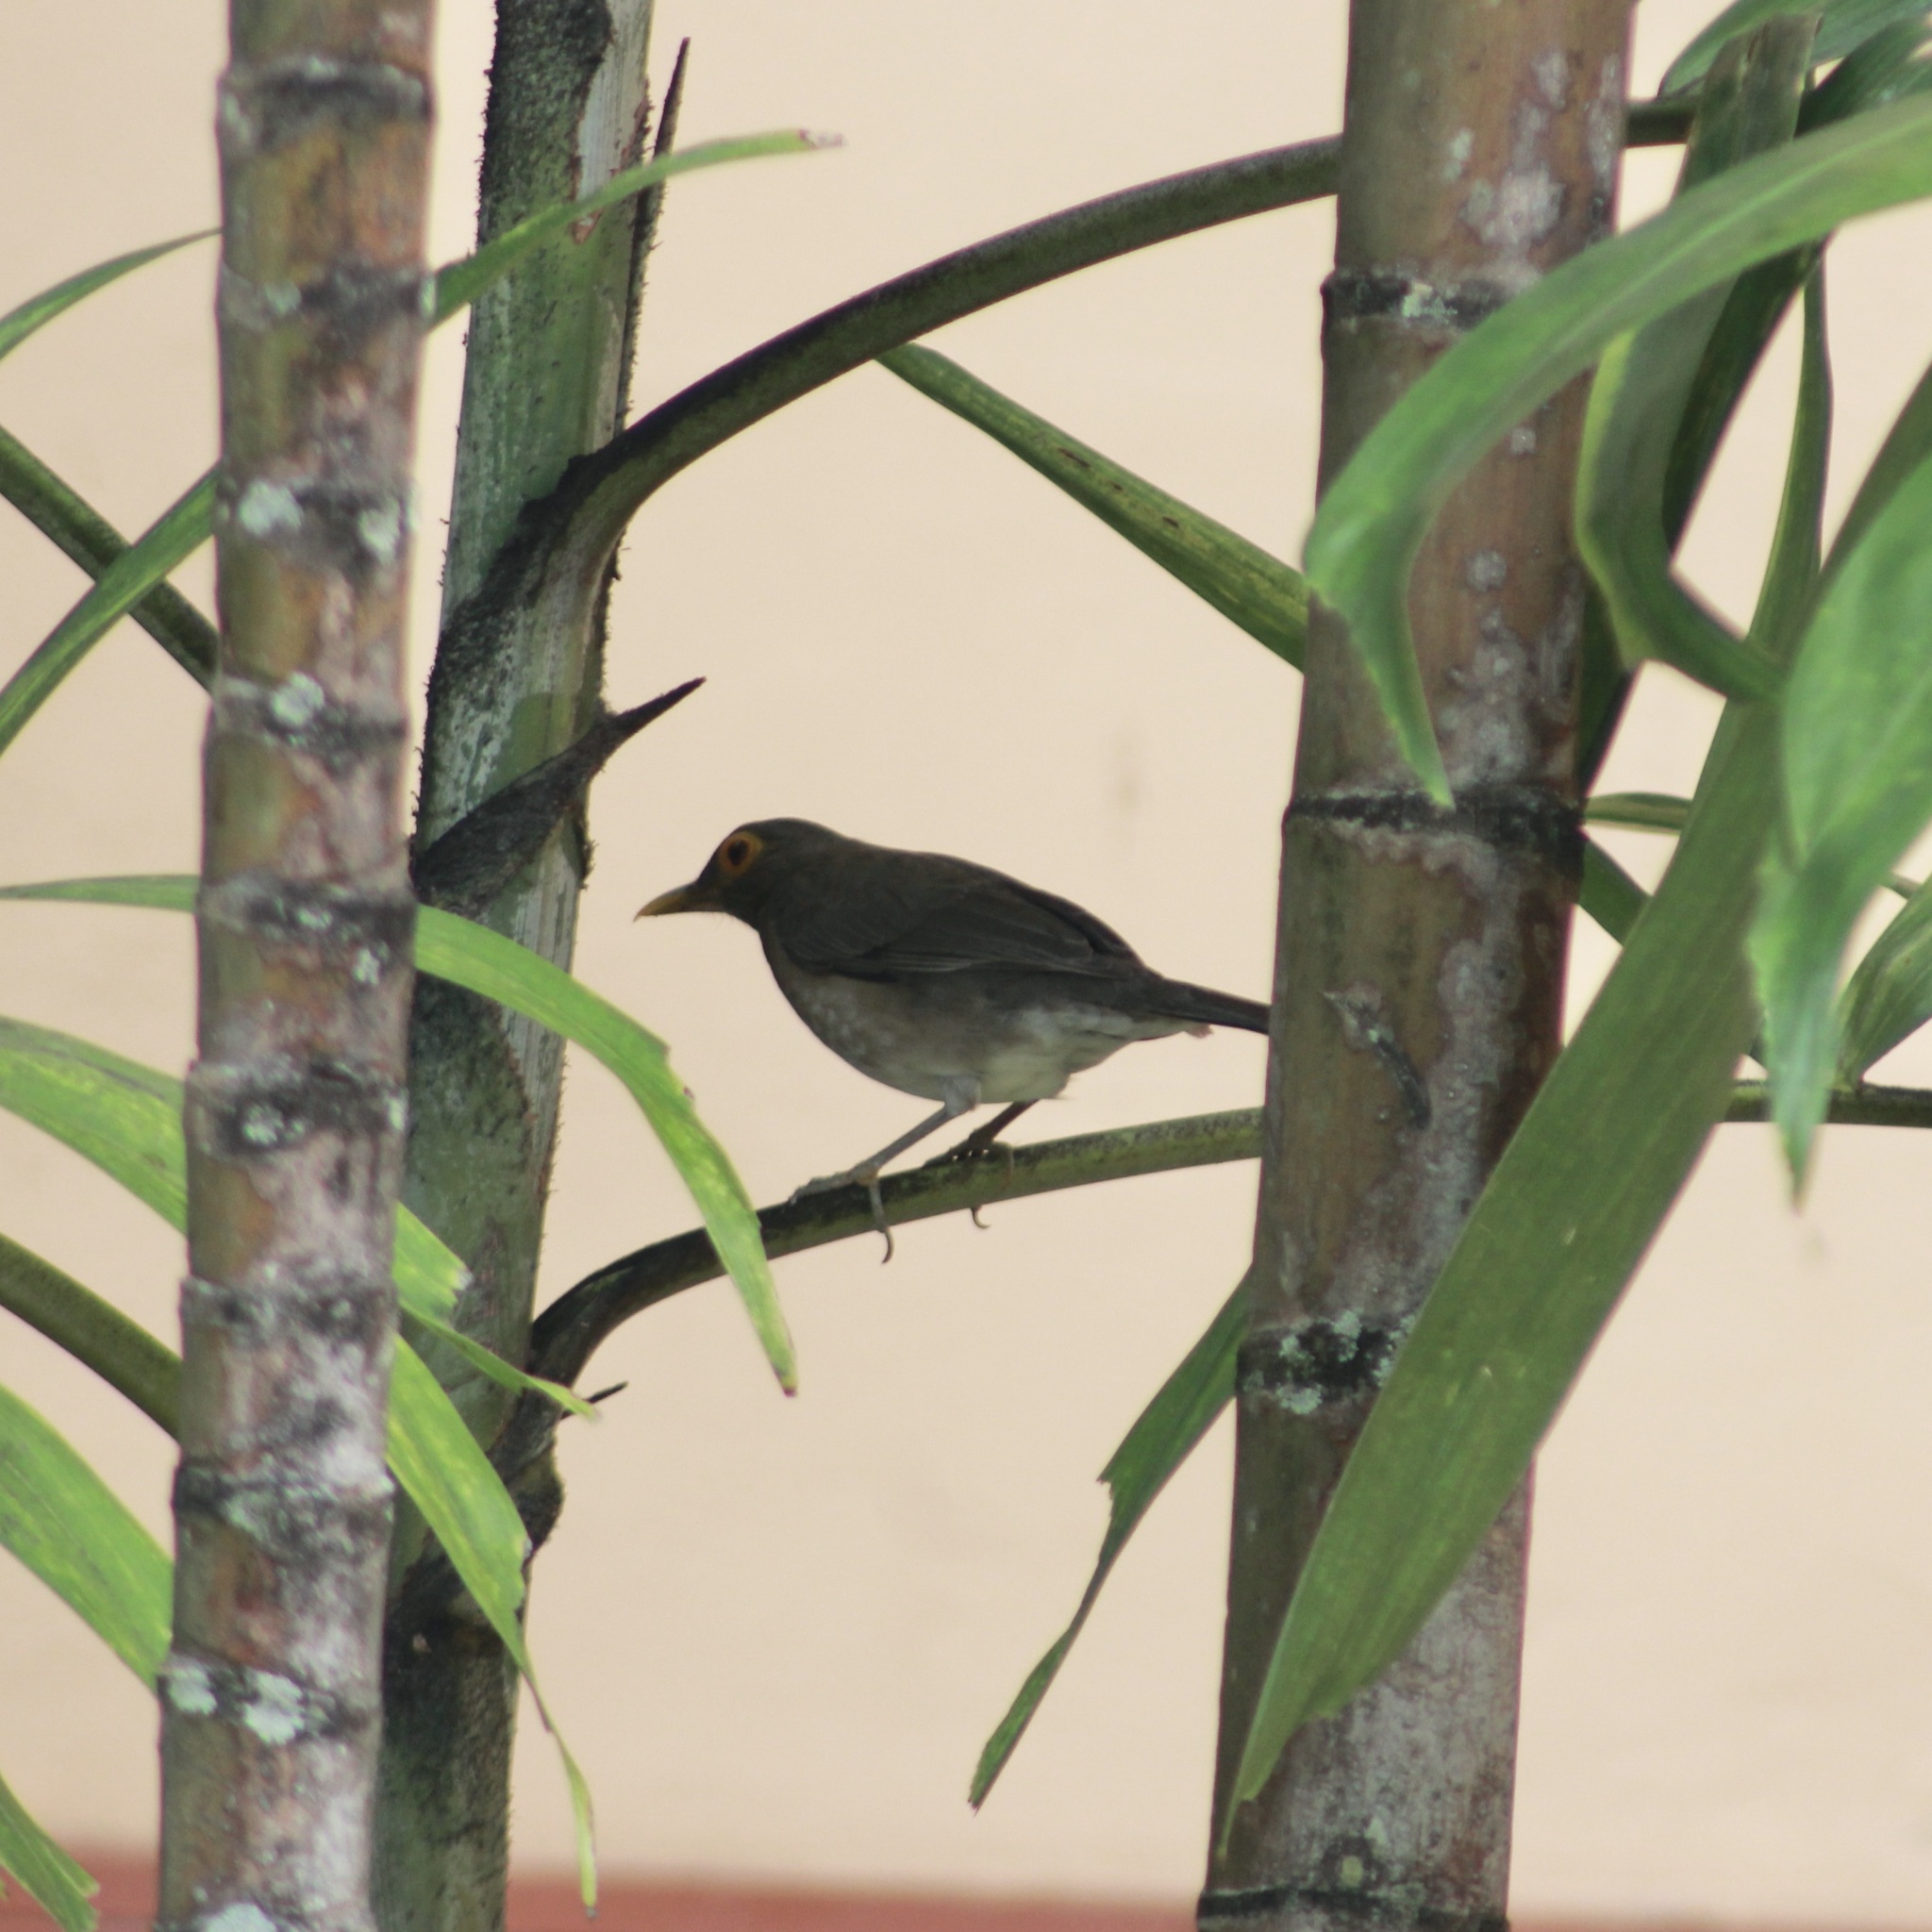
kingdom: Animalia
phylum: Chordata
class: Aves
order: Passeriformes
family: Turdidae
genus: Turdus
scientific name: Turdus nudigenis
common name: Spectacled thrush
